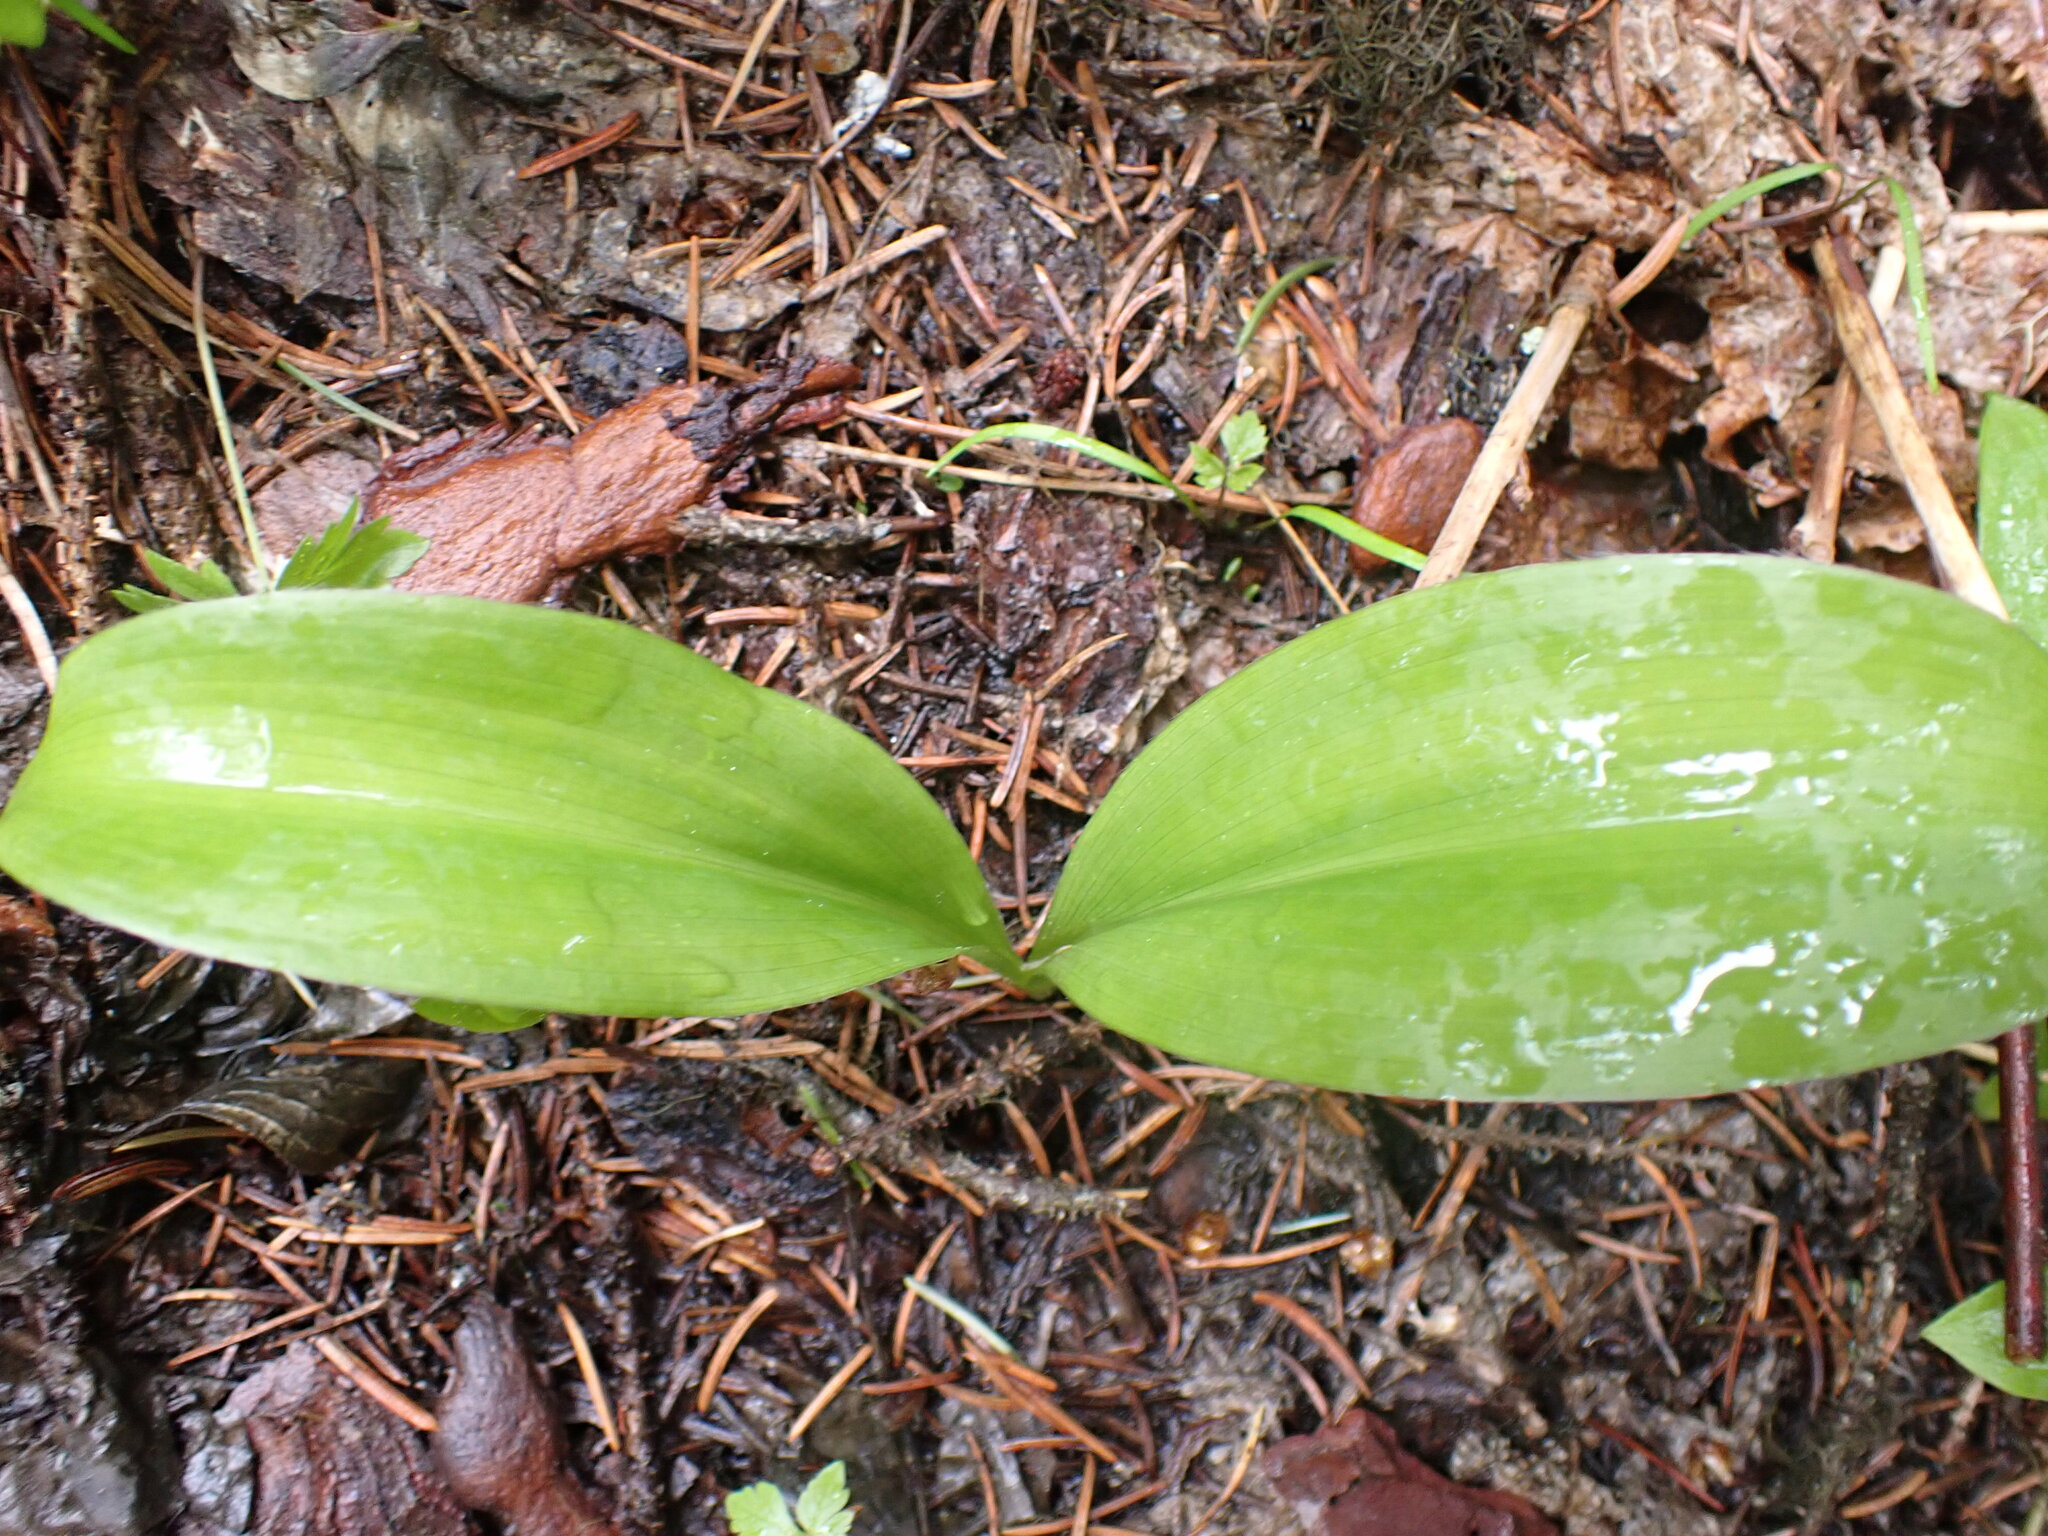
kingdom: Plantae
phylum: Tracheophyta
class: Liliopsida
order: Liliales
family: Liliaceae
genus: Clintonia
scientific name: Clintonia uniflora
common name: Queen's cup
